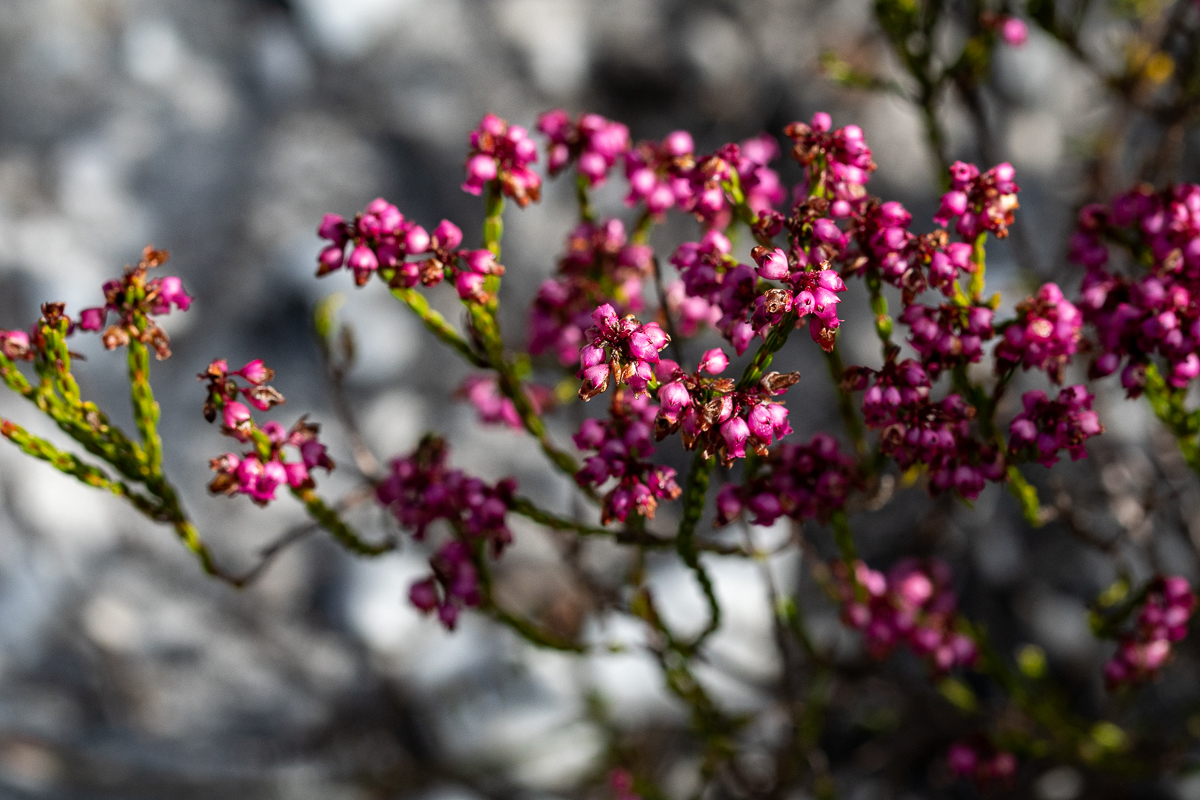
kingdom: Plantae
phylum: Tracheophyta
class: Magnoliopsida
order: Ericales
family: Ericaceae
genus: Erica
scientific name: Erica rhopalantha
